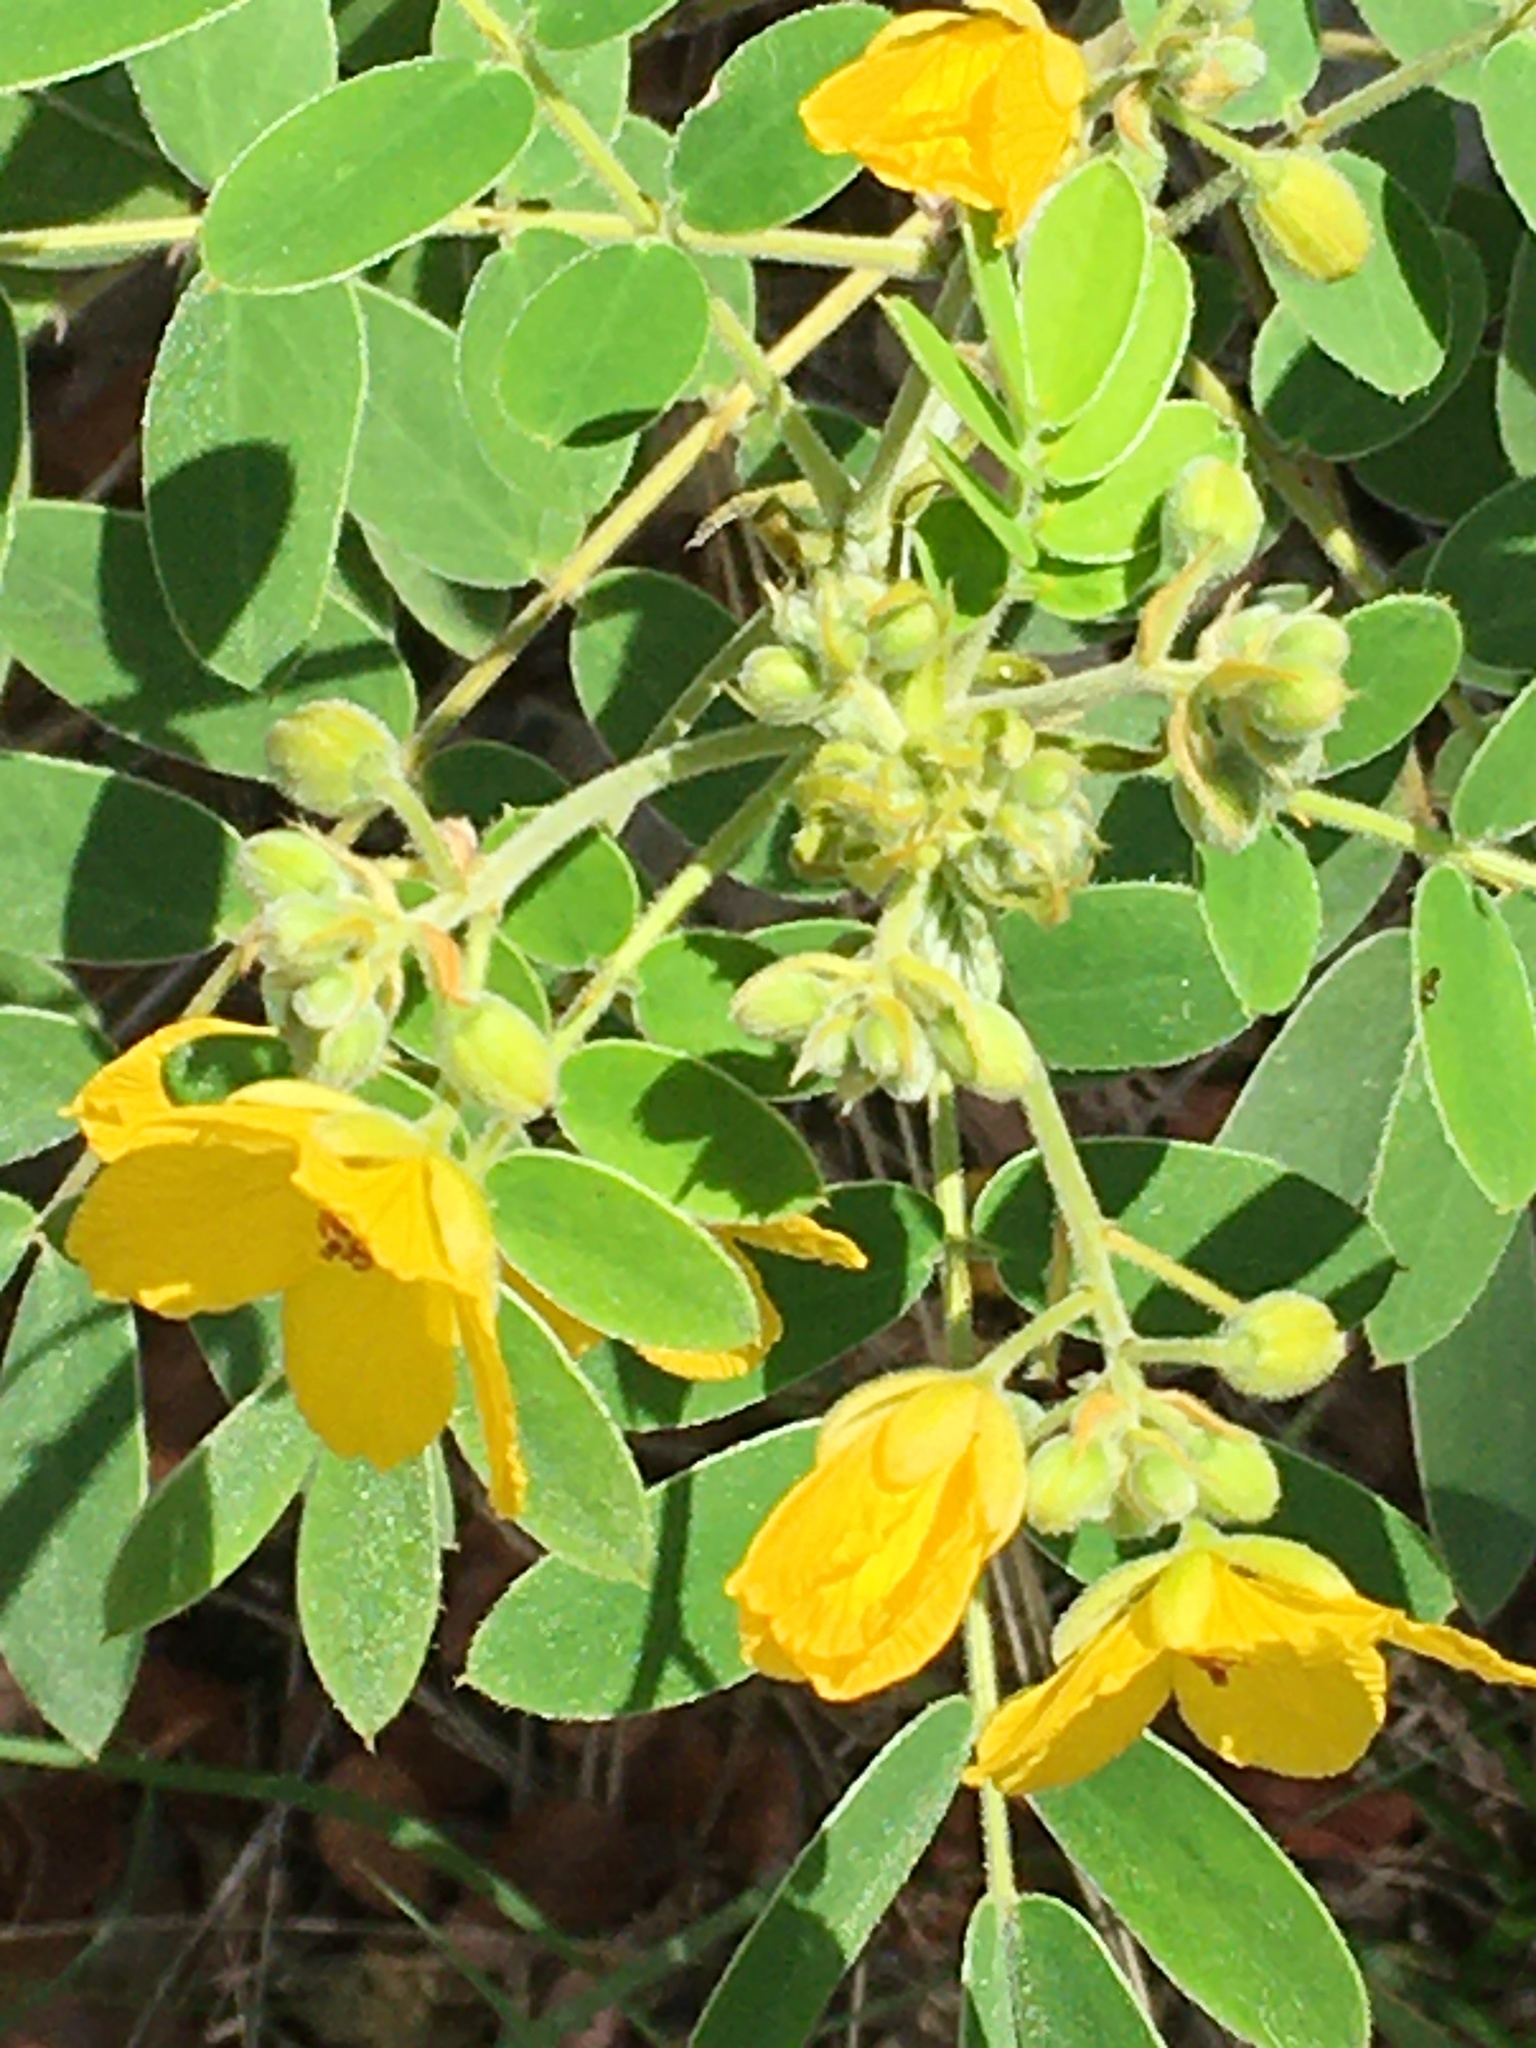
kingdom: Plantae
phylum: Tracheophyta
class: Magnoliopsida
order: Fabales
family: Fabaceae
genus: Senna
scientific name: Senna lindheimeriana
